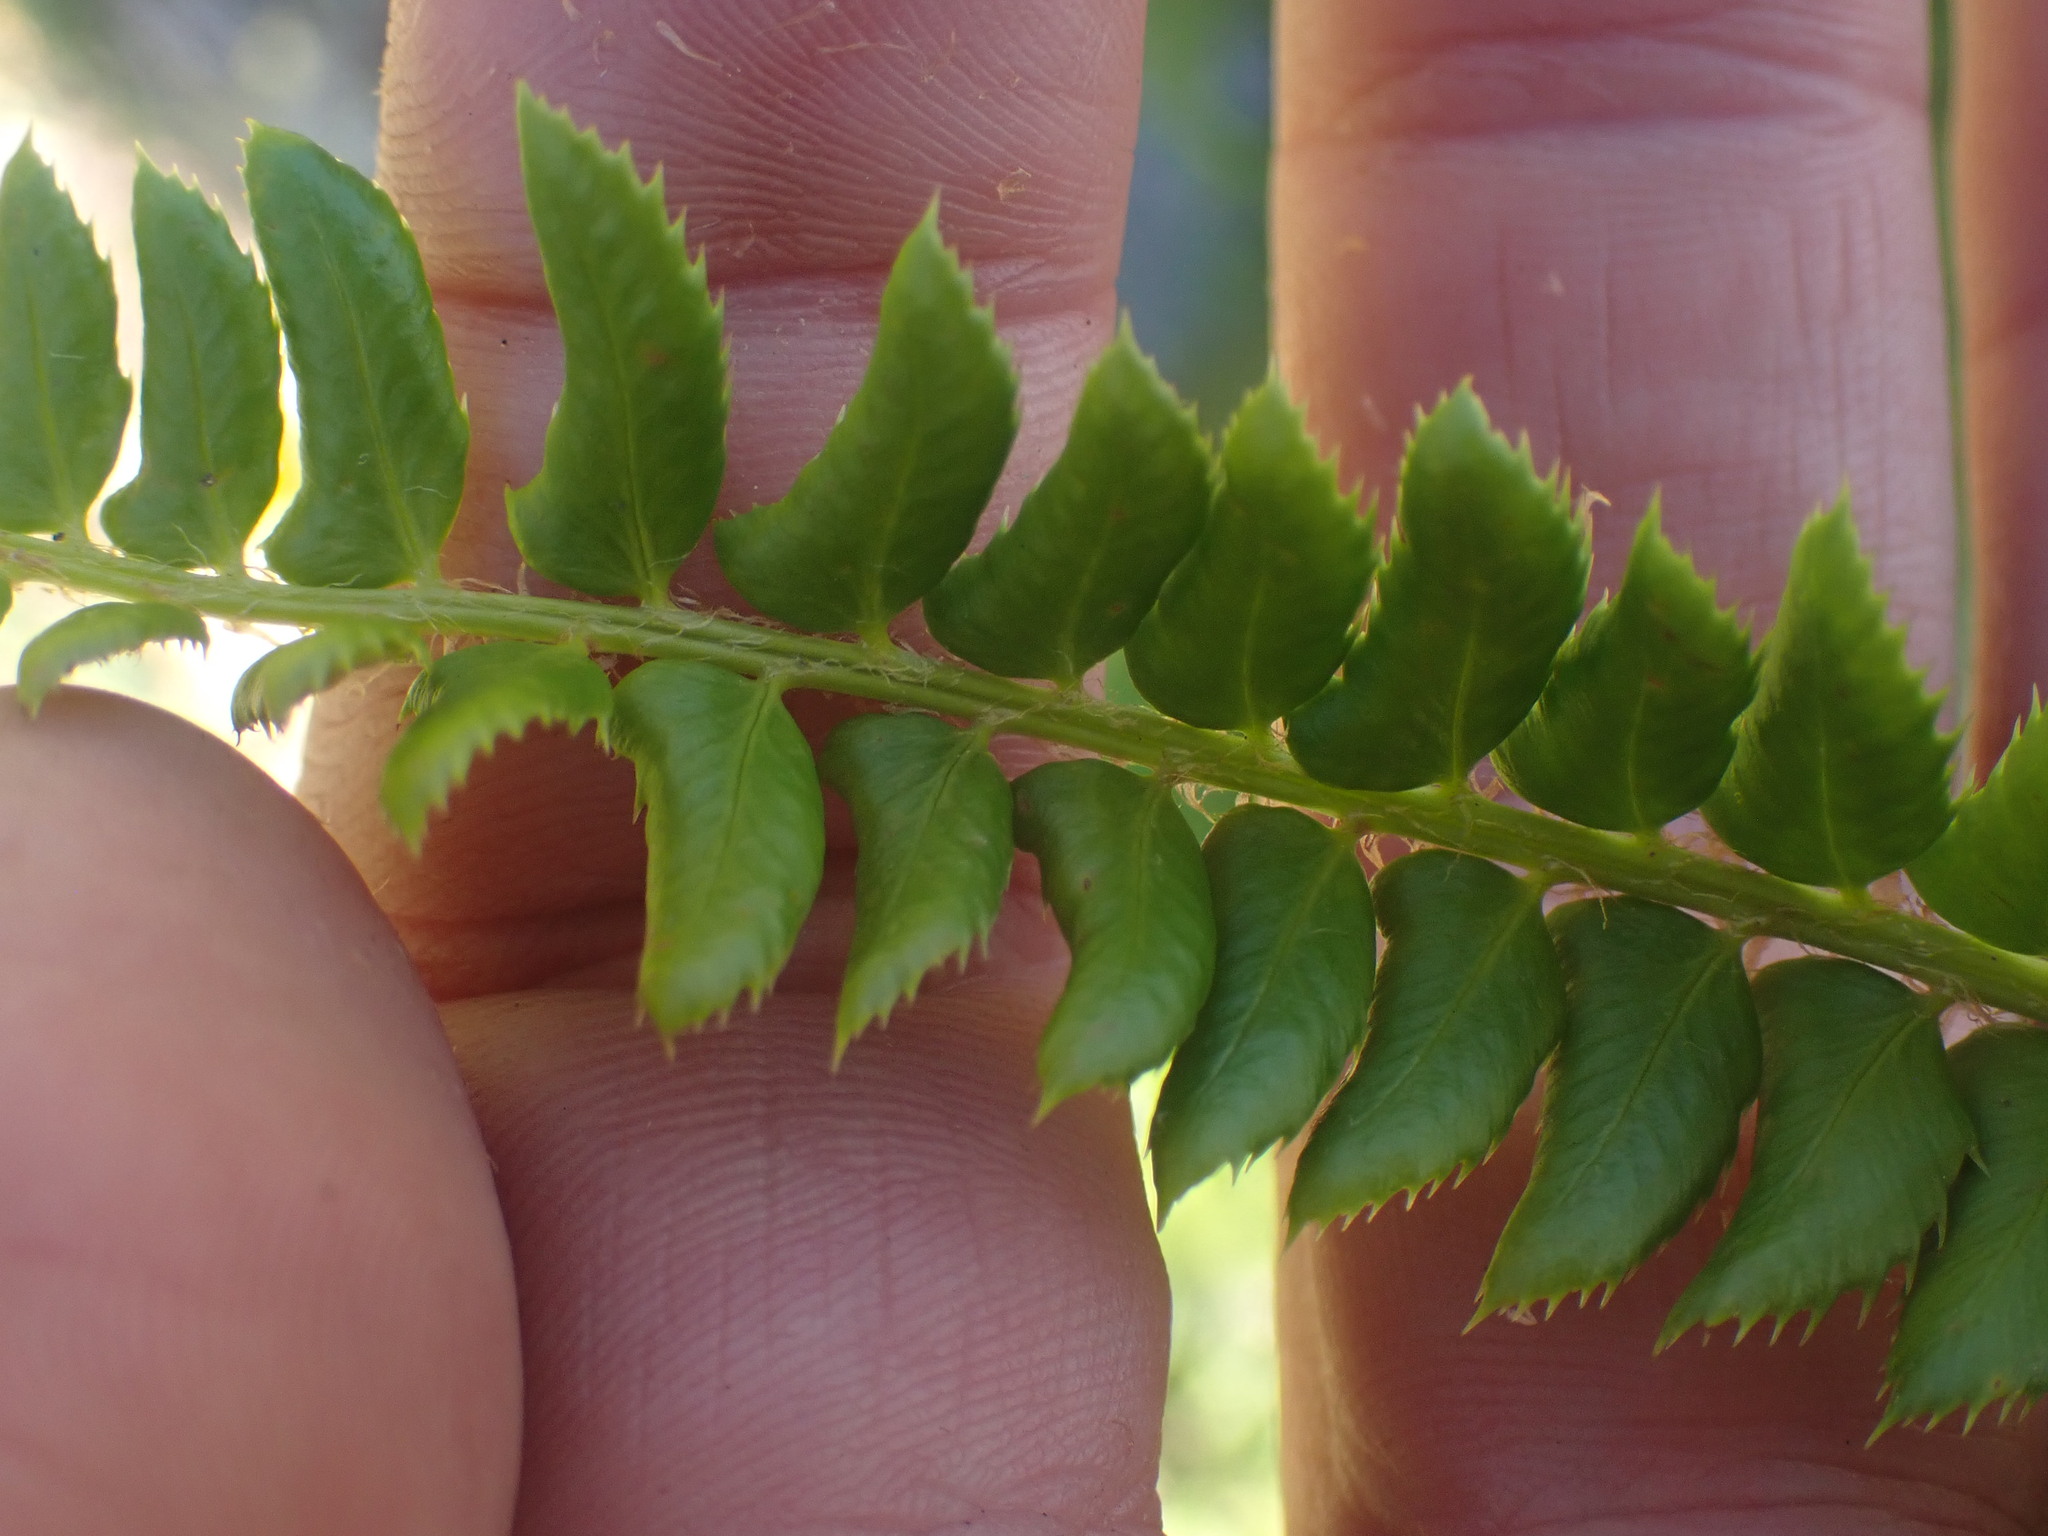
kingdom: Plantae
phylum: Tracheophyta
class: Polypodiopsida
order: Polypodiales
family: Dryopteridaceae
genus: Polystichum
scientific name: Polystichum lonchitis
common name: Holly fern
